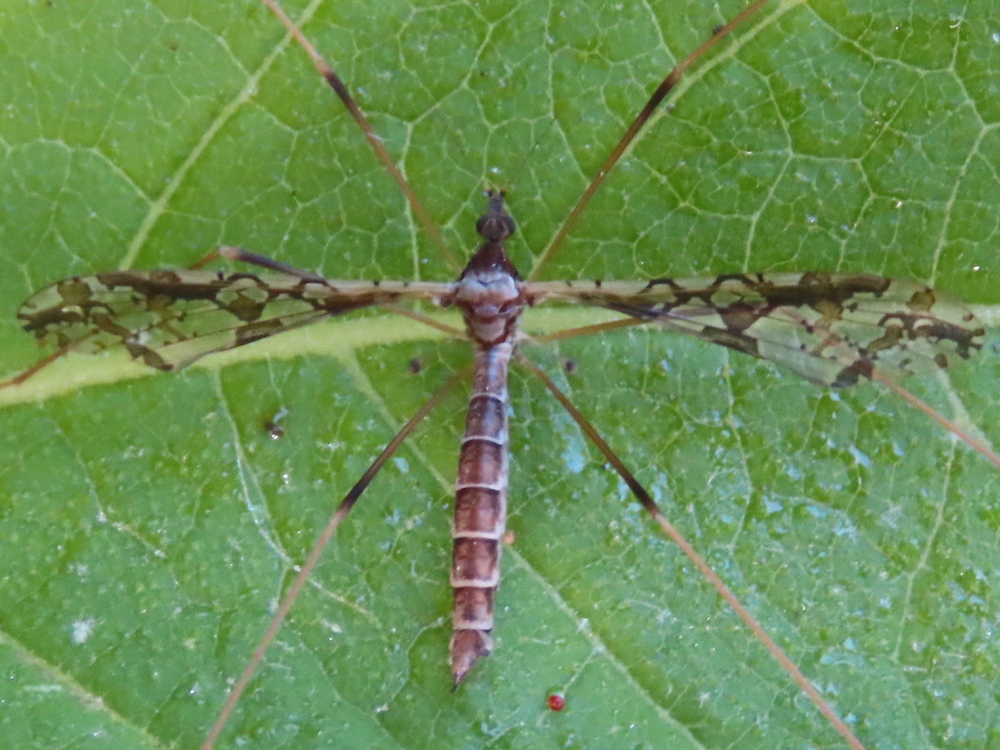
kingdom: Animalia
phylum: Arthropoda
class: Insecta
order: Diptera
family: Limoniidae
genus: Epiphragma
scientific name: Epiphragma solatrix
